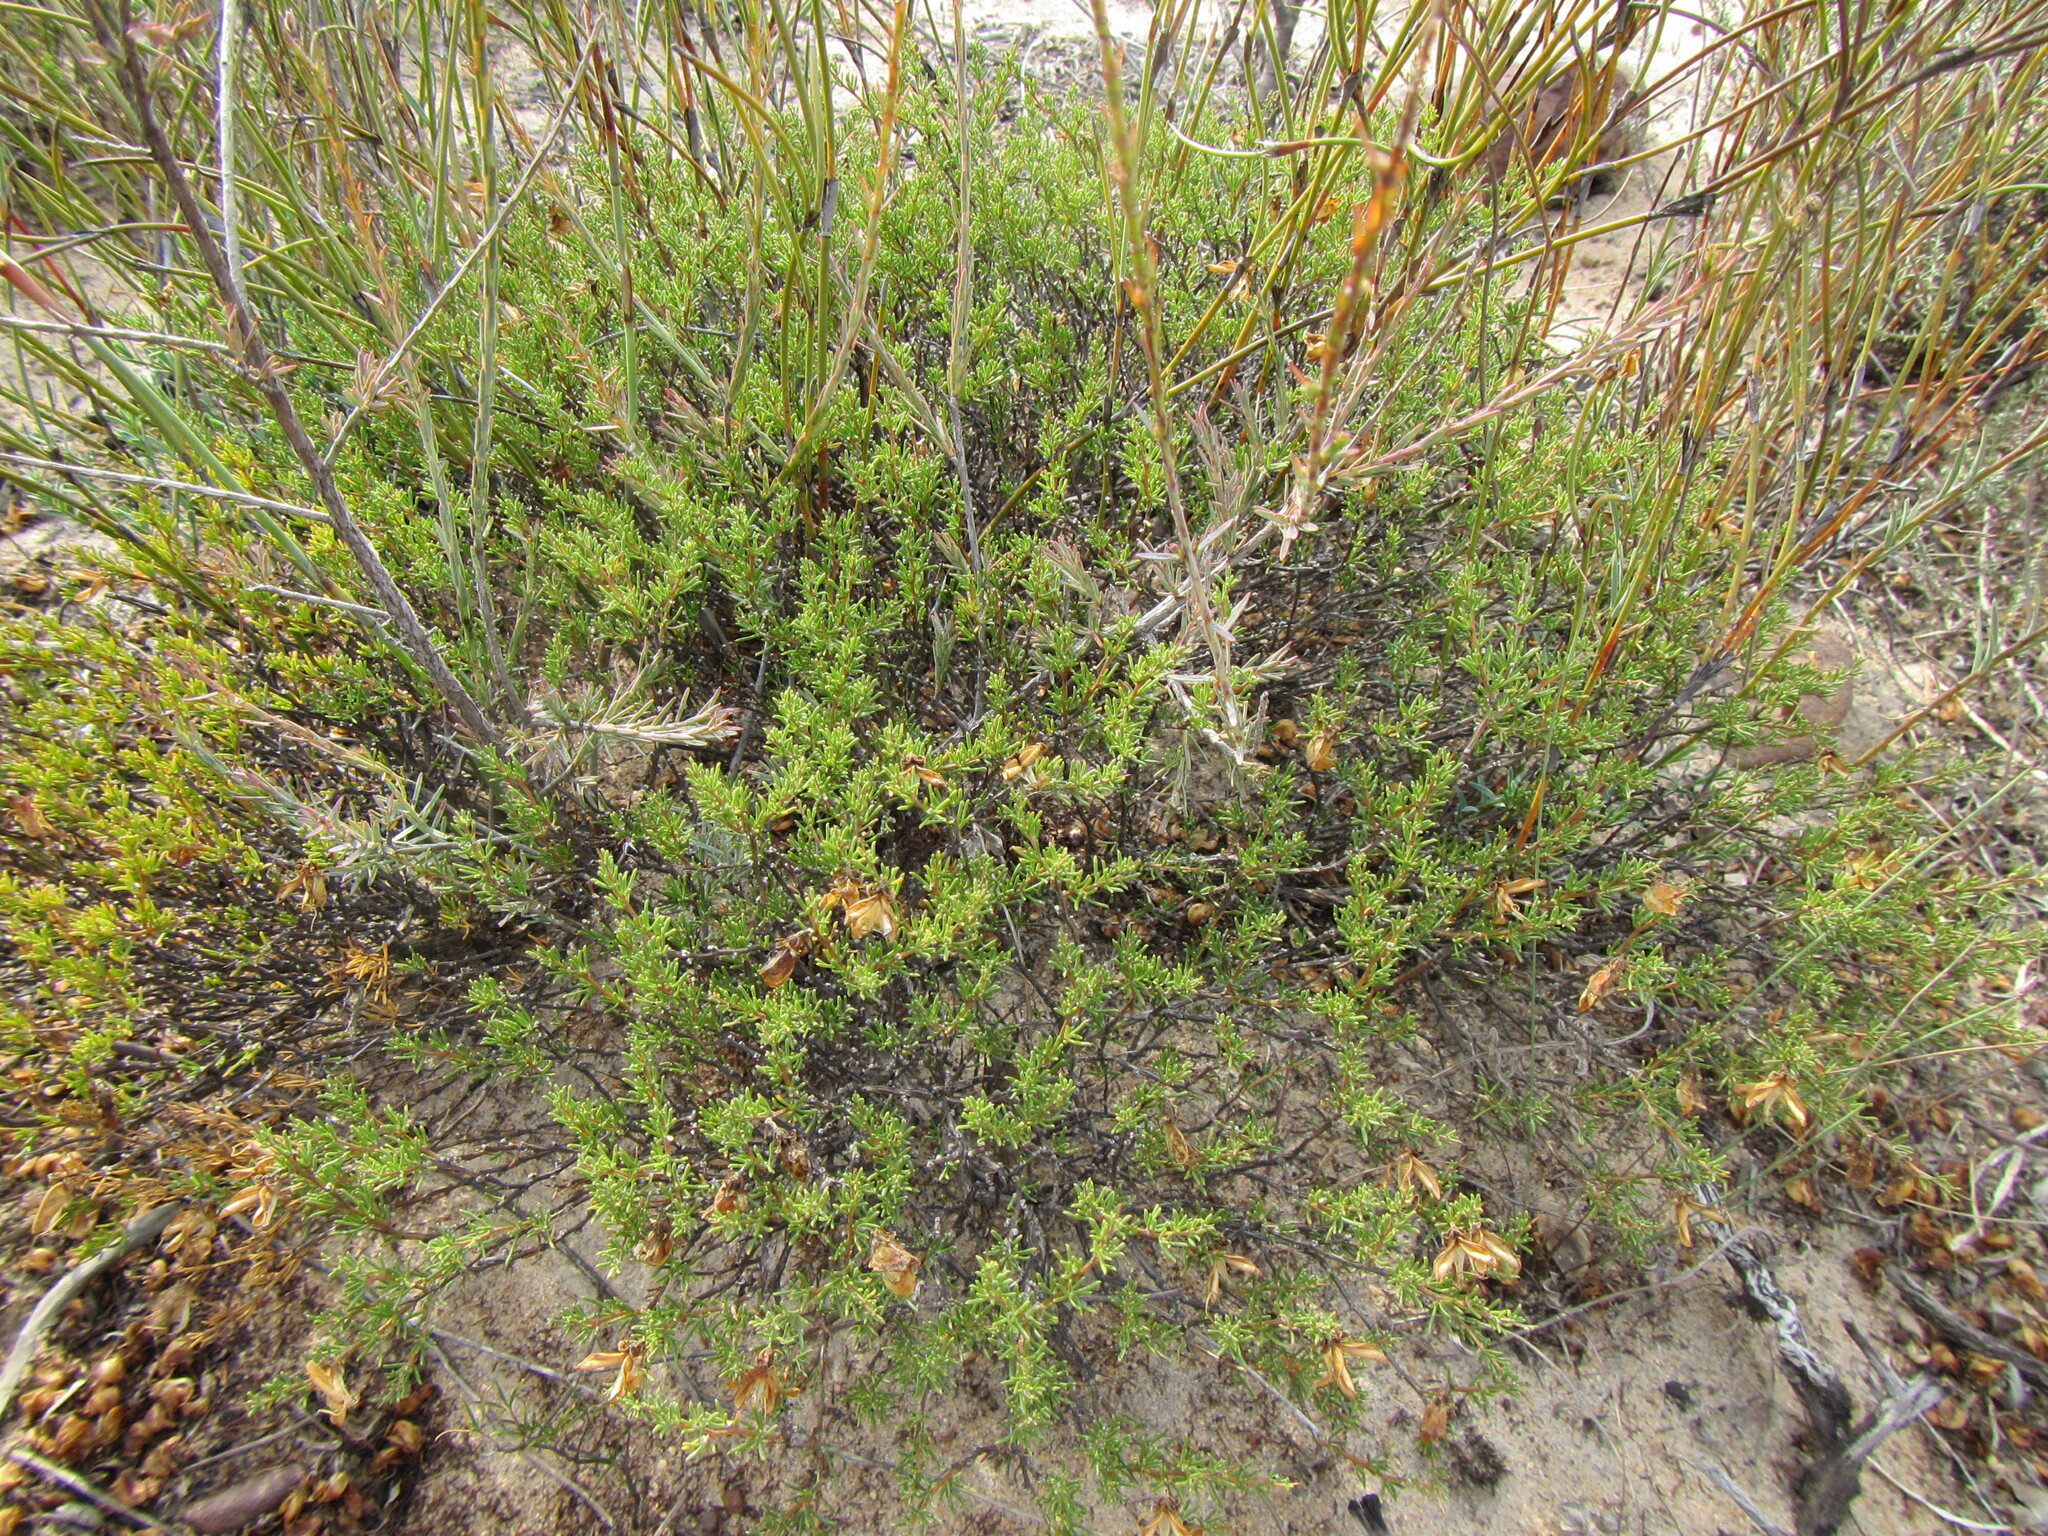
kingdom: Plantae
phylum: Tracheophyta
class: Magnoliopsida
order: Fabales
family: Fabaceae
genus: Aspalathus
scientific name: Aspalathus arida
